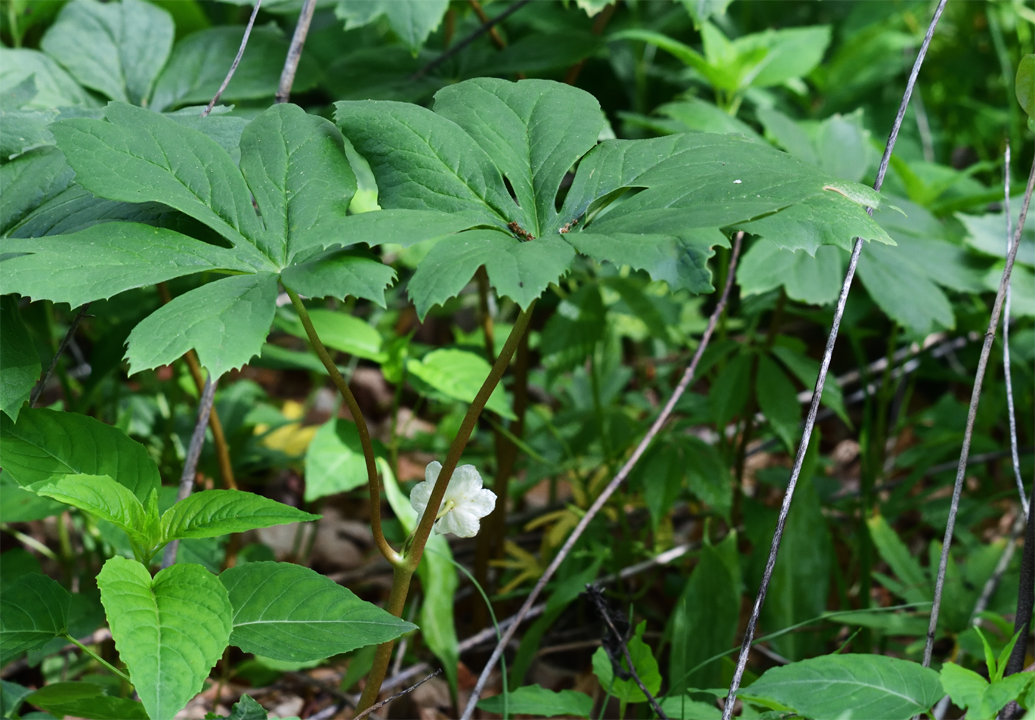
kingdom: Plantae
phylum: Tracheophyta
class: Magnoliopsida
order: Ranunculales
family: Berberidaceae
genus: Podophyllum
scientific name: Podophyllum peltatum
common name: Wild mandrake
